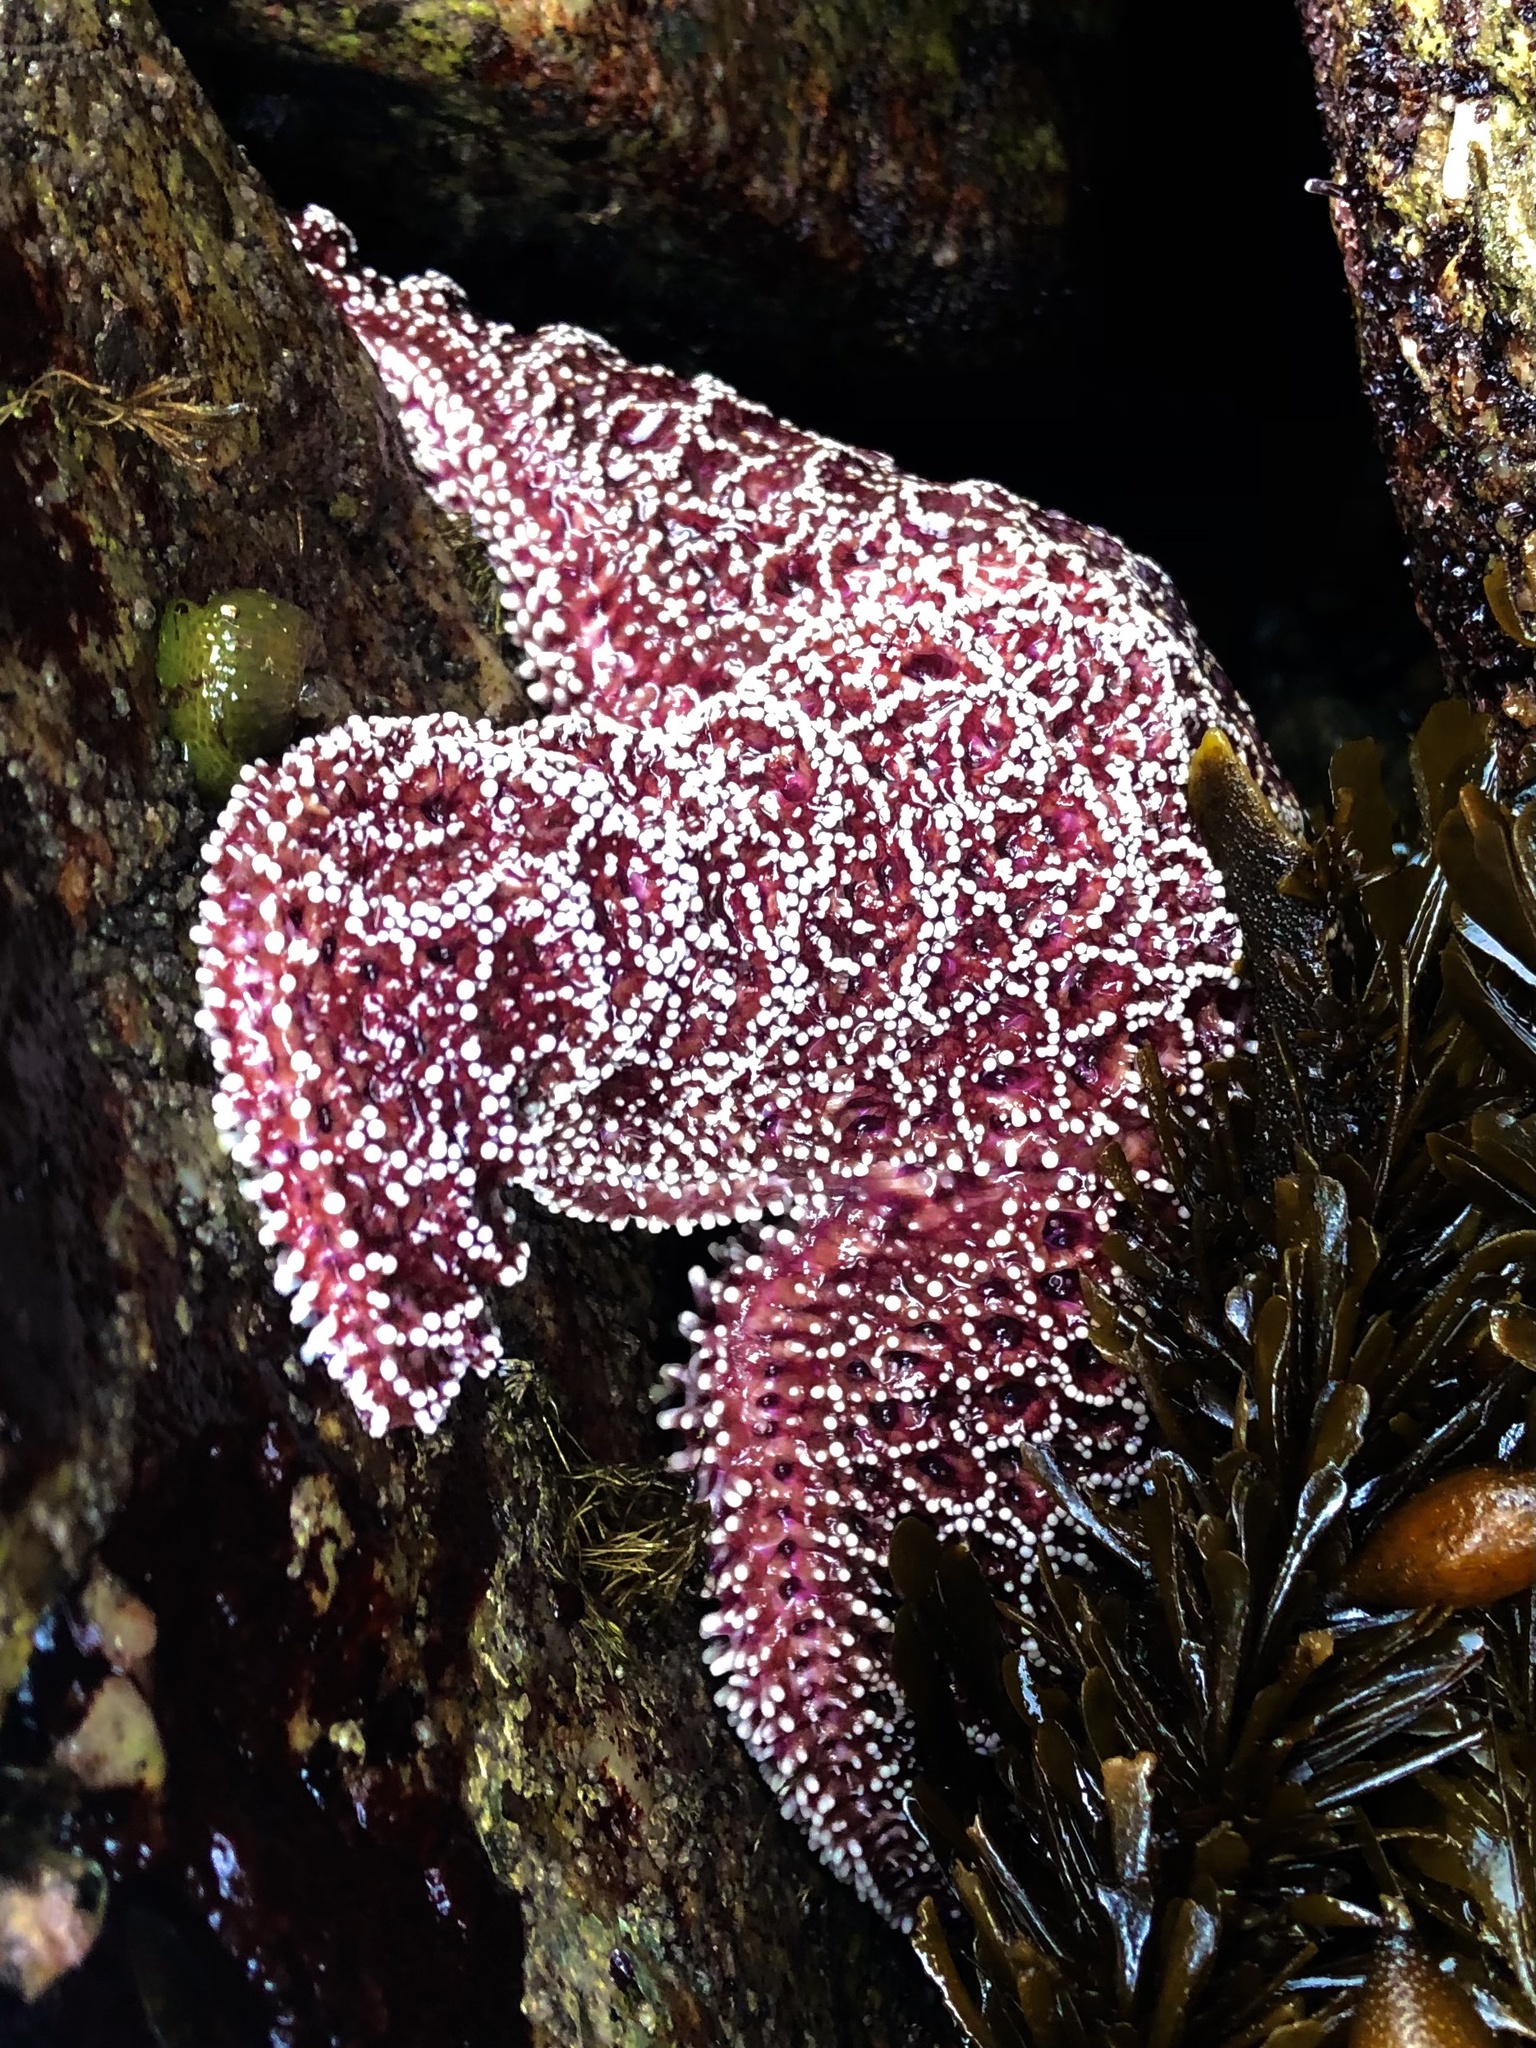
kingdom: Animalia
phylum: Echinodermata
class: Asteroidea
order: Forcipulatida
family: Asteriidae
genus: Pisaster
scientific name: Pisaster ochraceus
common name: Ochre stars
